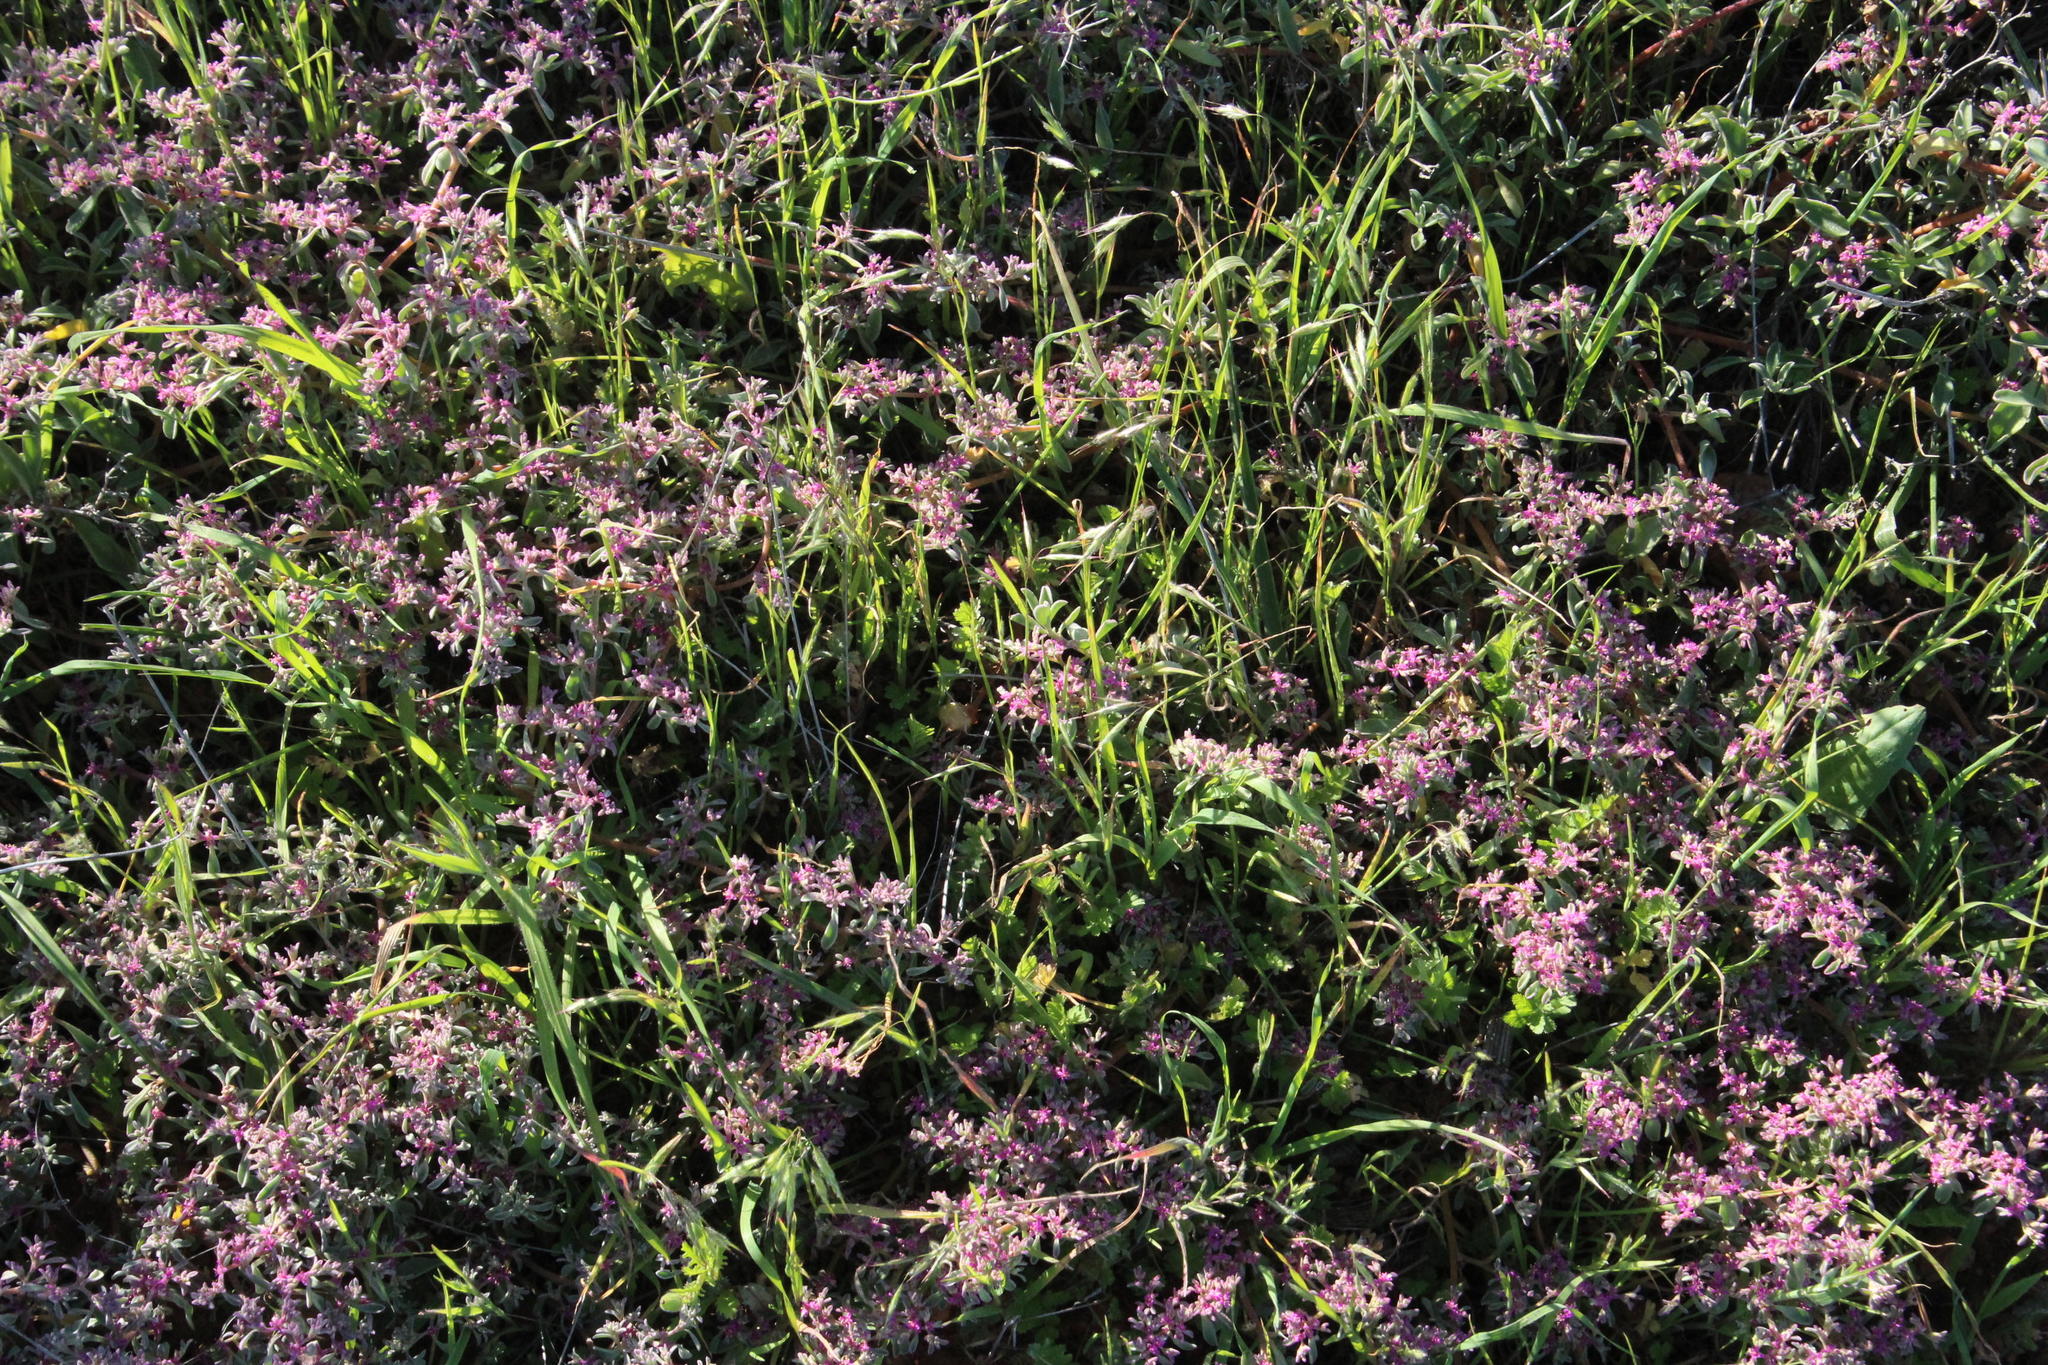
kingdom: Plantae
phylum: Tracheophyta
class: Magnoliopsida
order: Caryophyllales
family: Aizoaceae
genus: Aizoon
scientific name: Aizoon paniculatum
